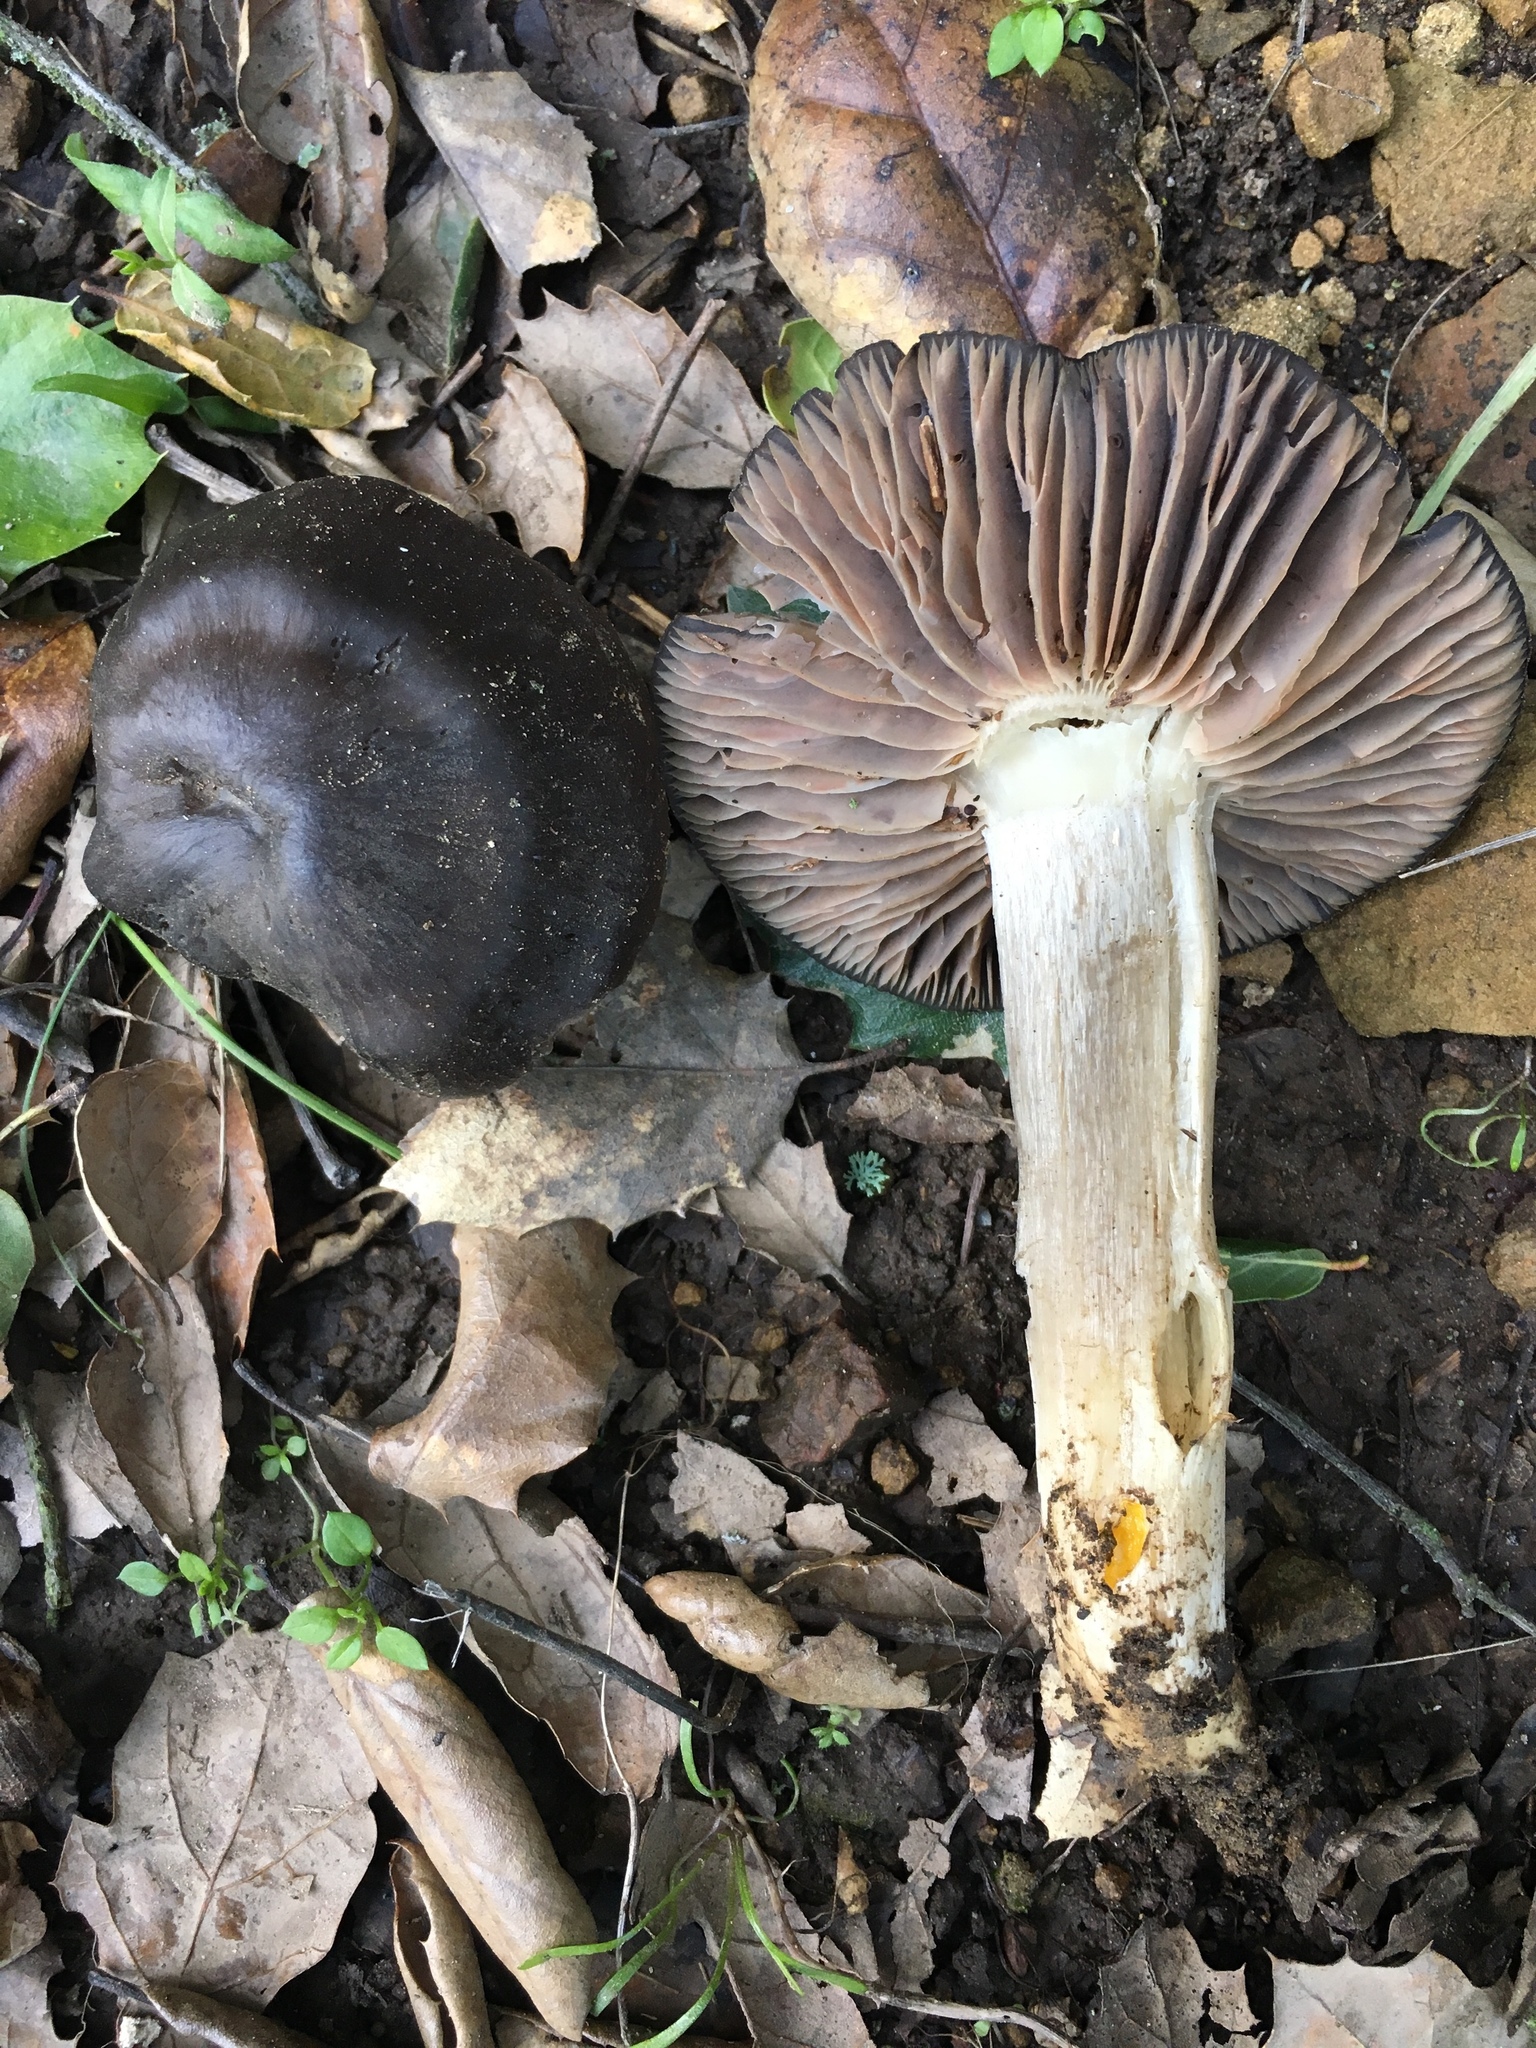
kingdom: Fungi
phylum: Basidiomycota
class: Agaricomycetes
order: Agaricales
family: Entolomataceae
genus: Entoloma
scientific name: Entoloma ferruginans
